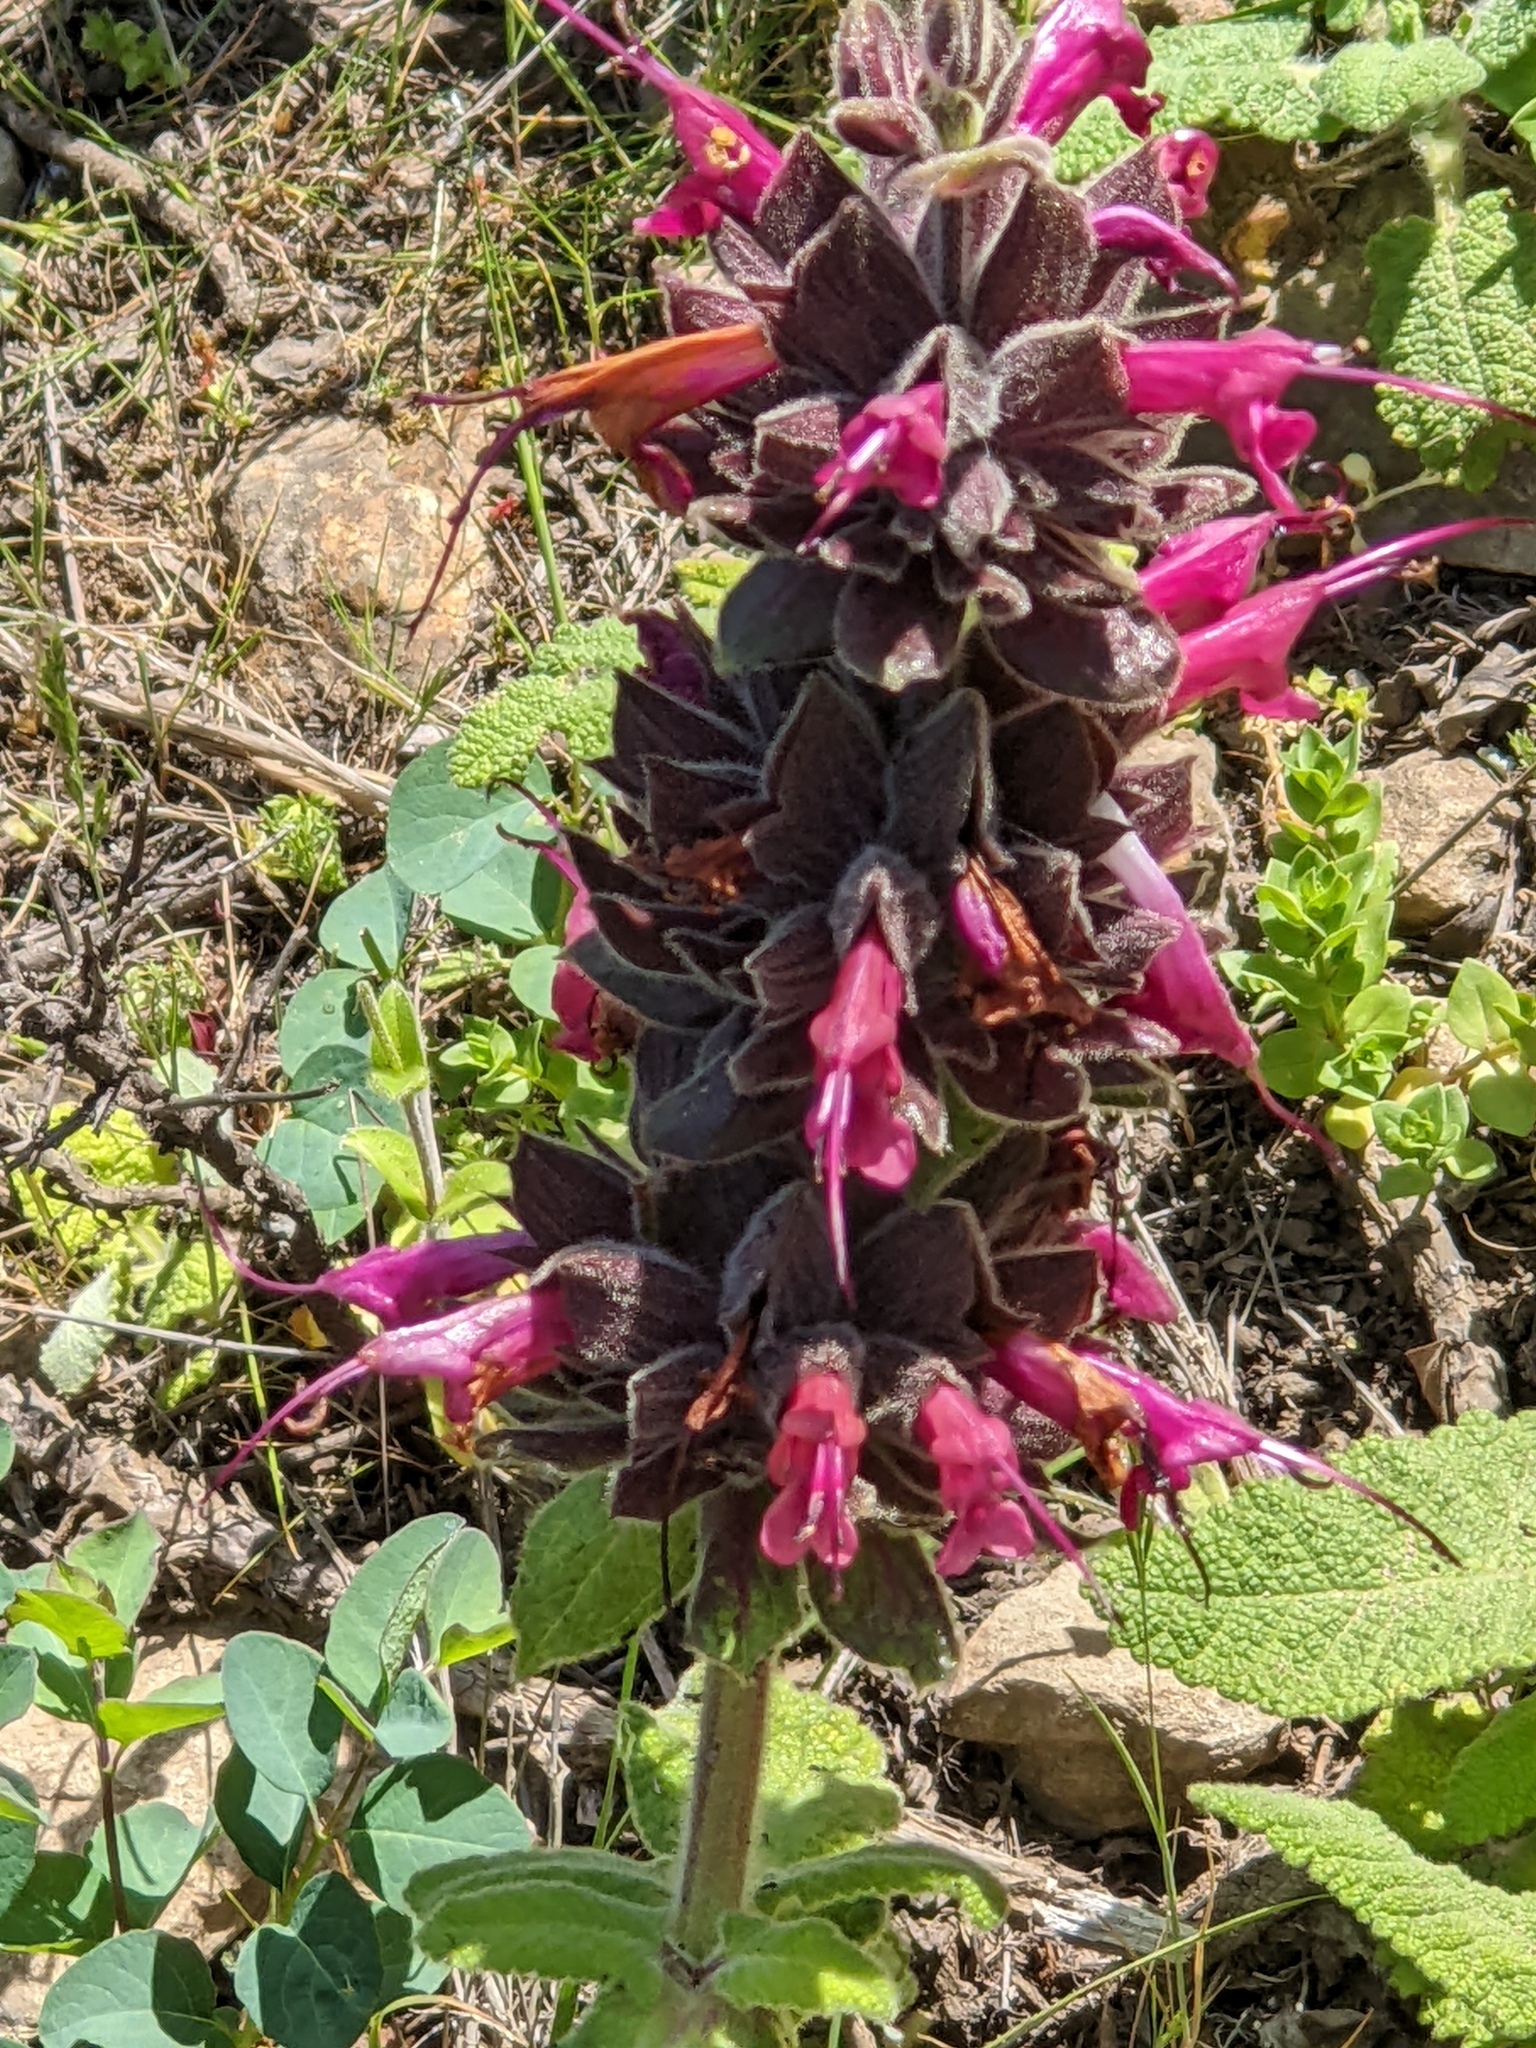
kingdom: Plantae
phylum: Tracheophyta
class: Magnoliopsida
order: Lamiales
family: Lamiaceae
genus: Salvia
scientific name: Salvia spathacea
